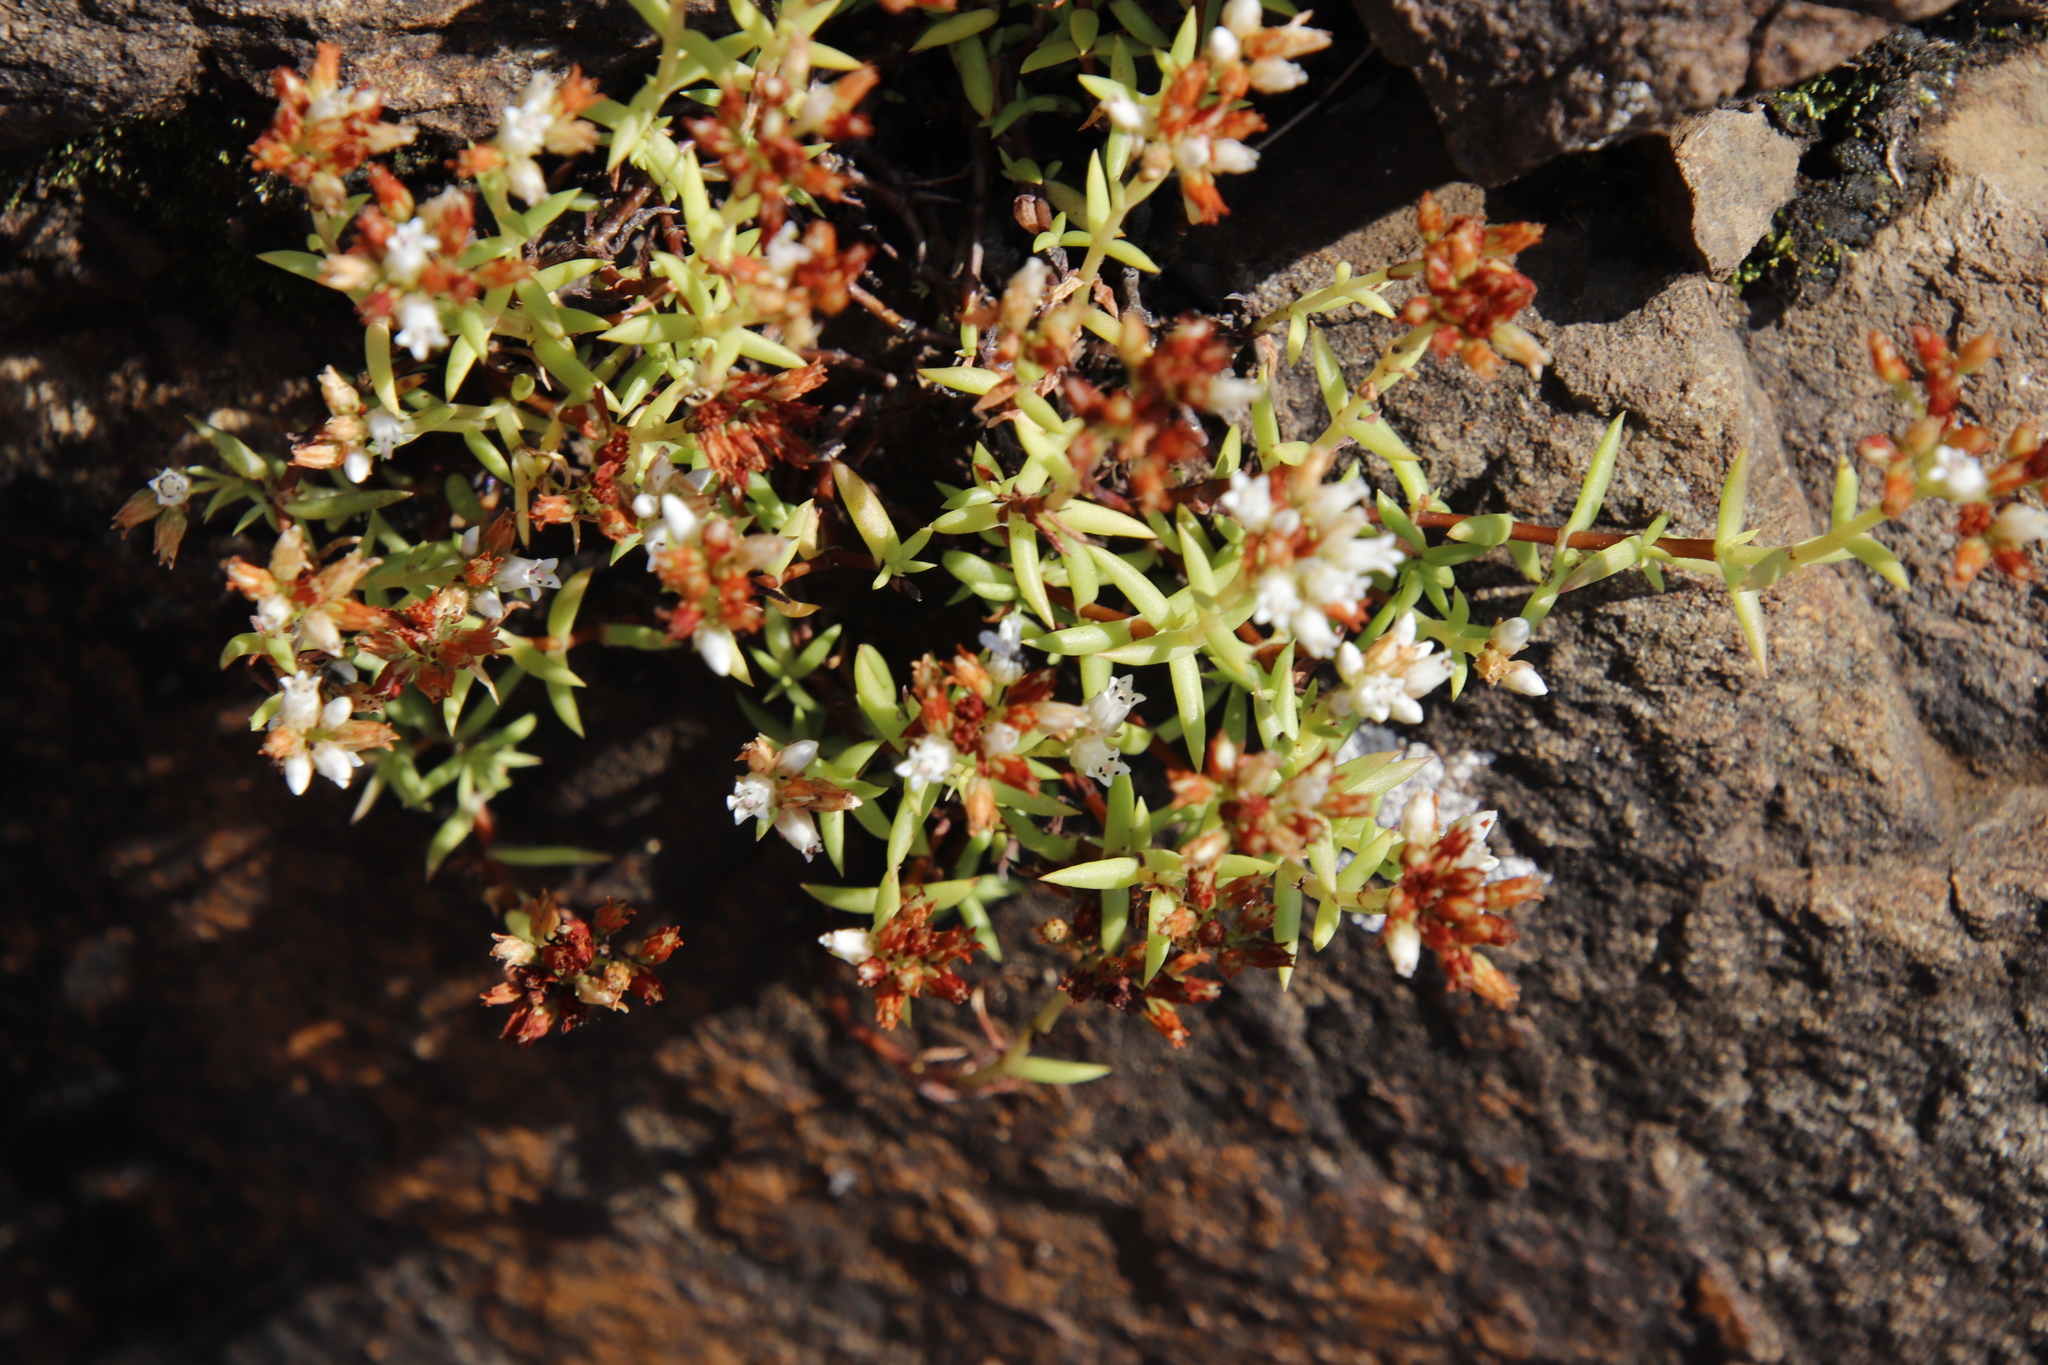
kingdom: Plantae
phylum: Tracheophyta
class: Magnoliopsida
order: Saxifragales
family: Crassulaceae
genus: Crassula
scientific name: Crassula dependens
